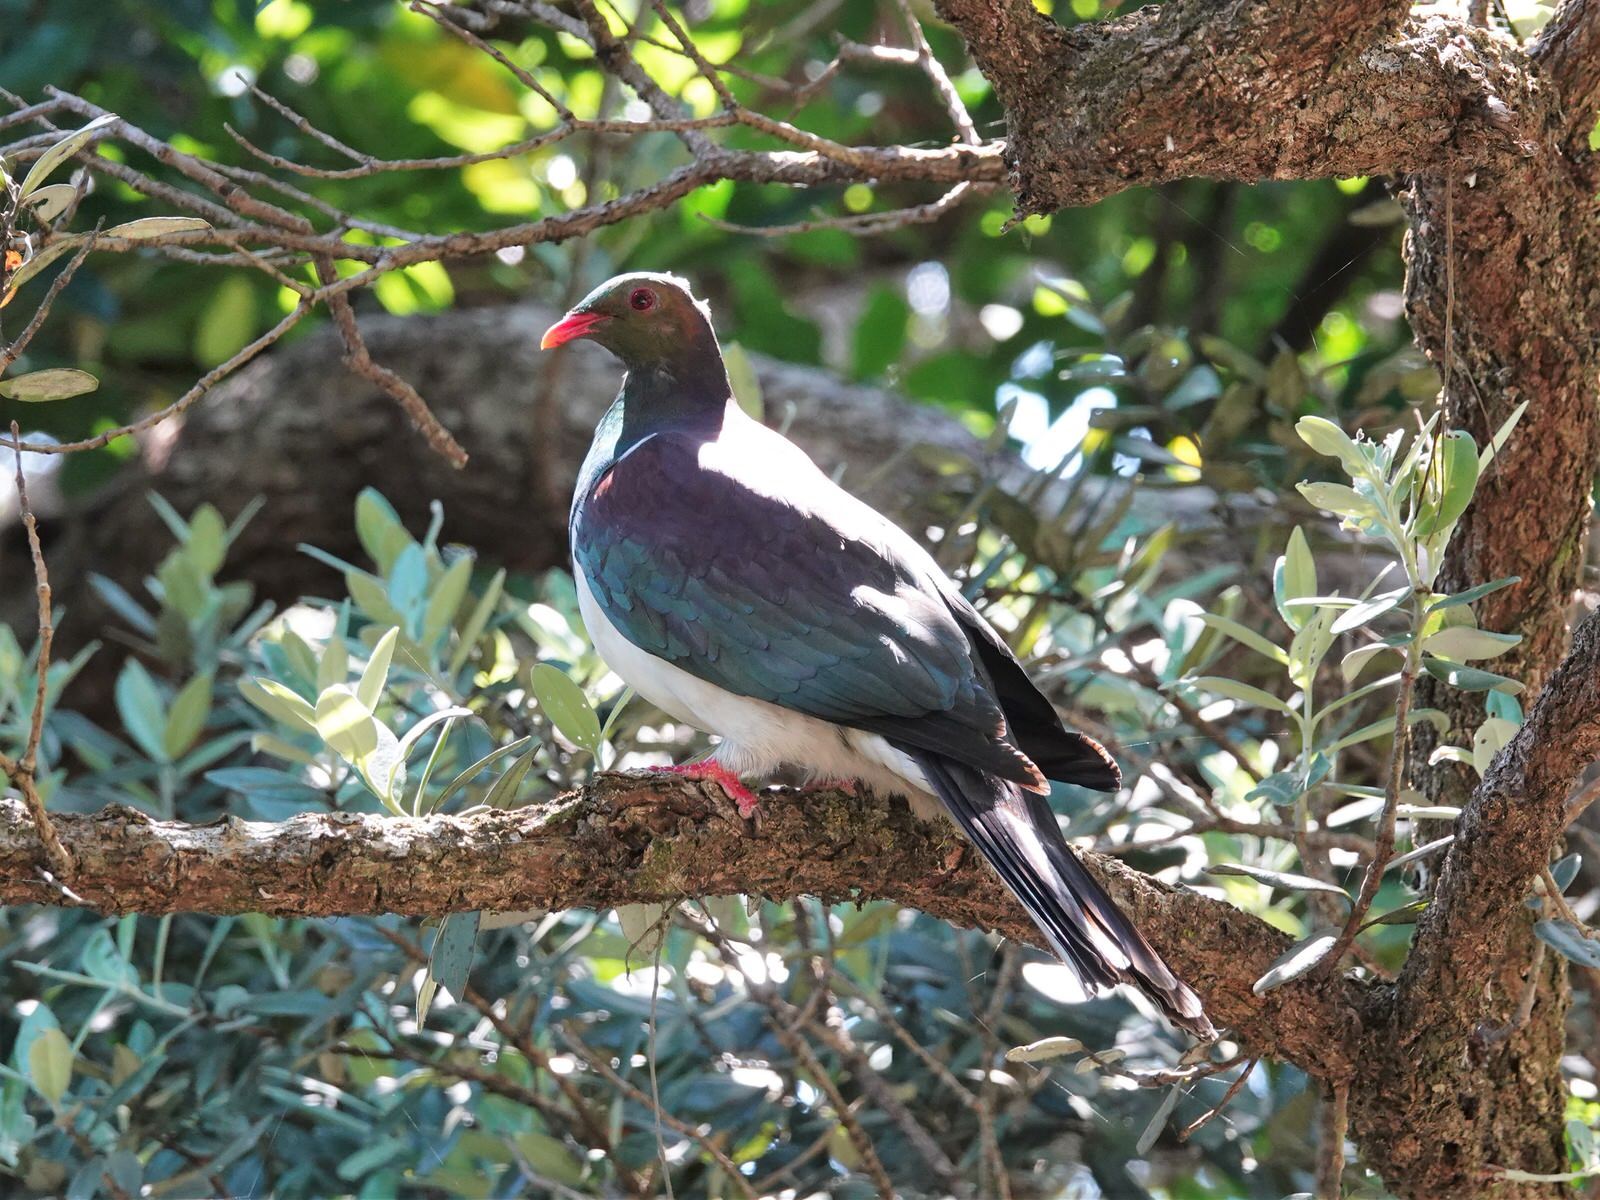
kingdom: Animalia
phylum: Chordata
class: Aves
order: Columbiformes
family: Columbidae
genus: Hemiphaga
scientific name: Hemiphaga novaeseelandiae
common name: New zealand pigeon
